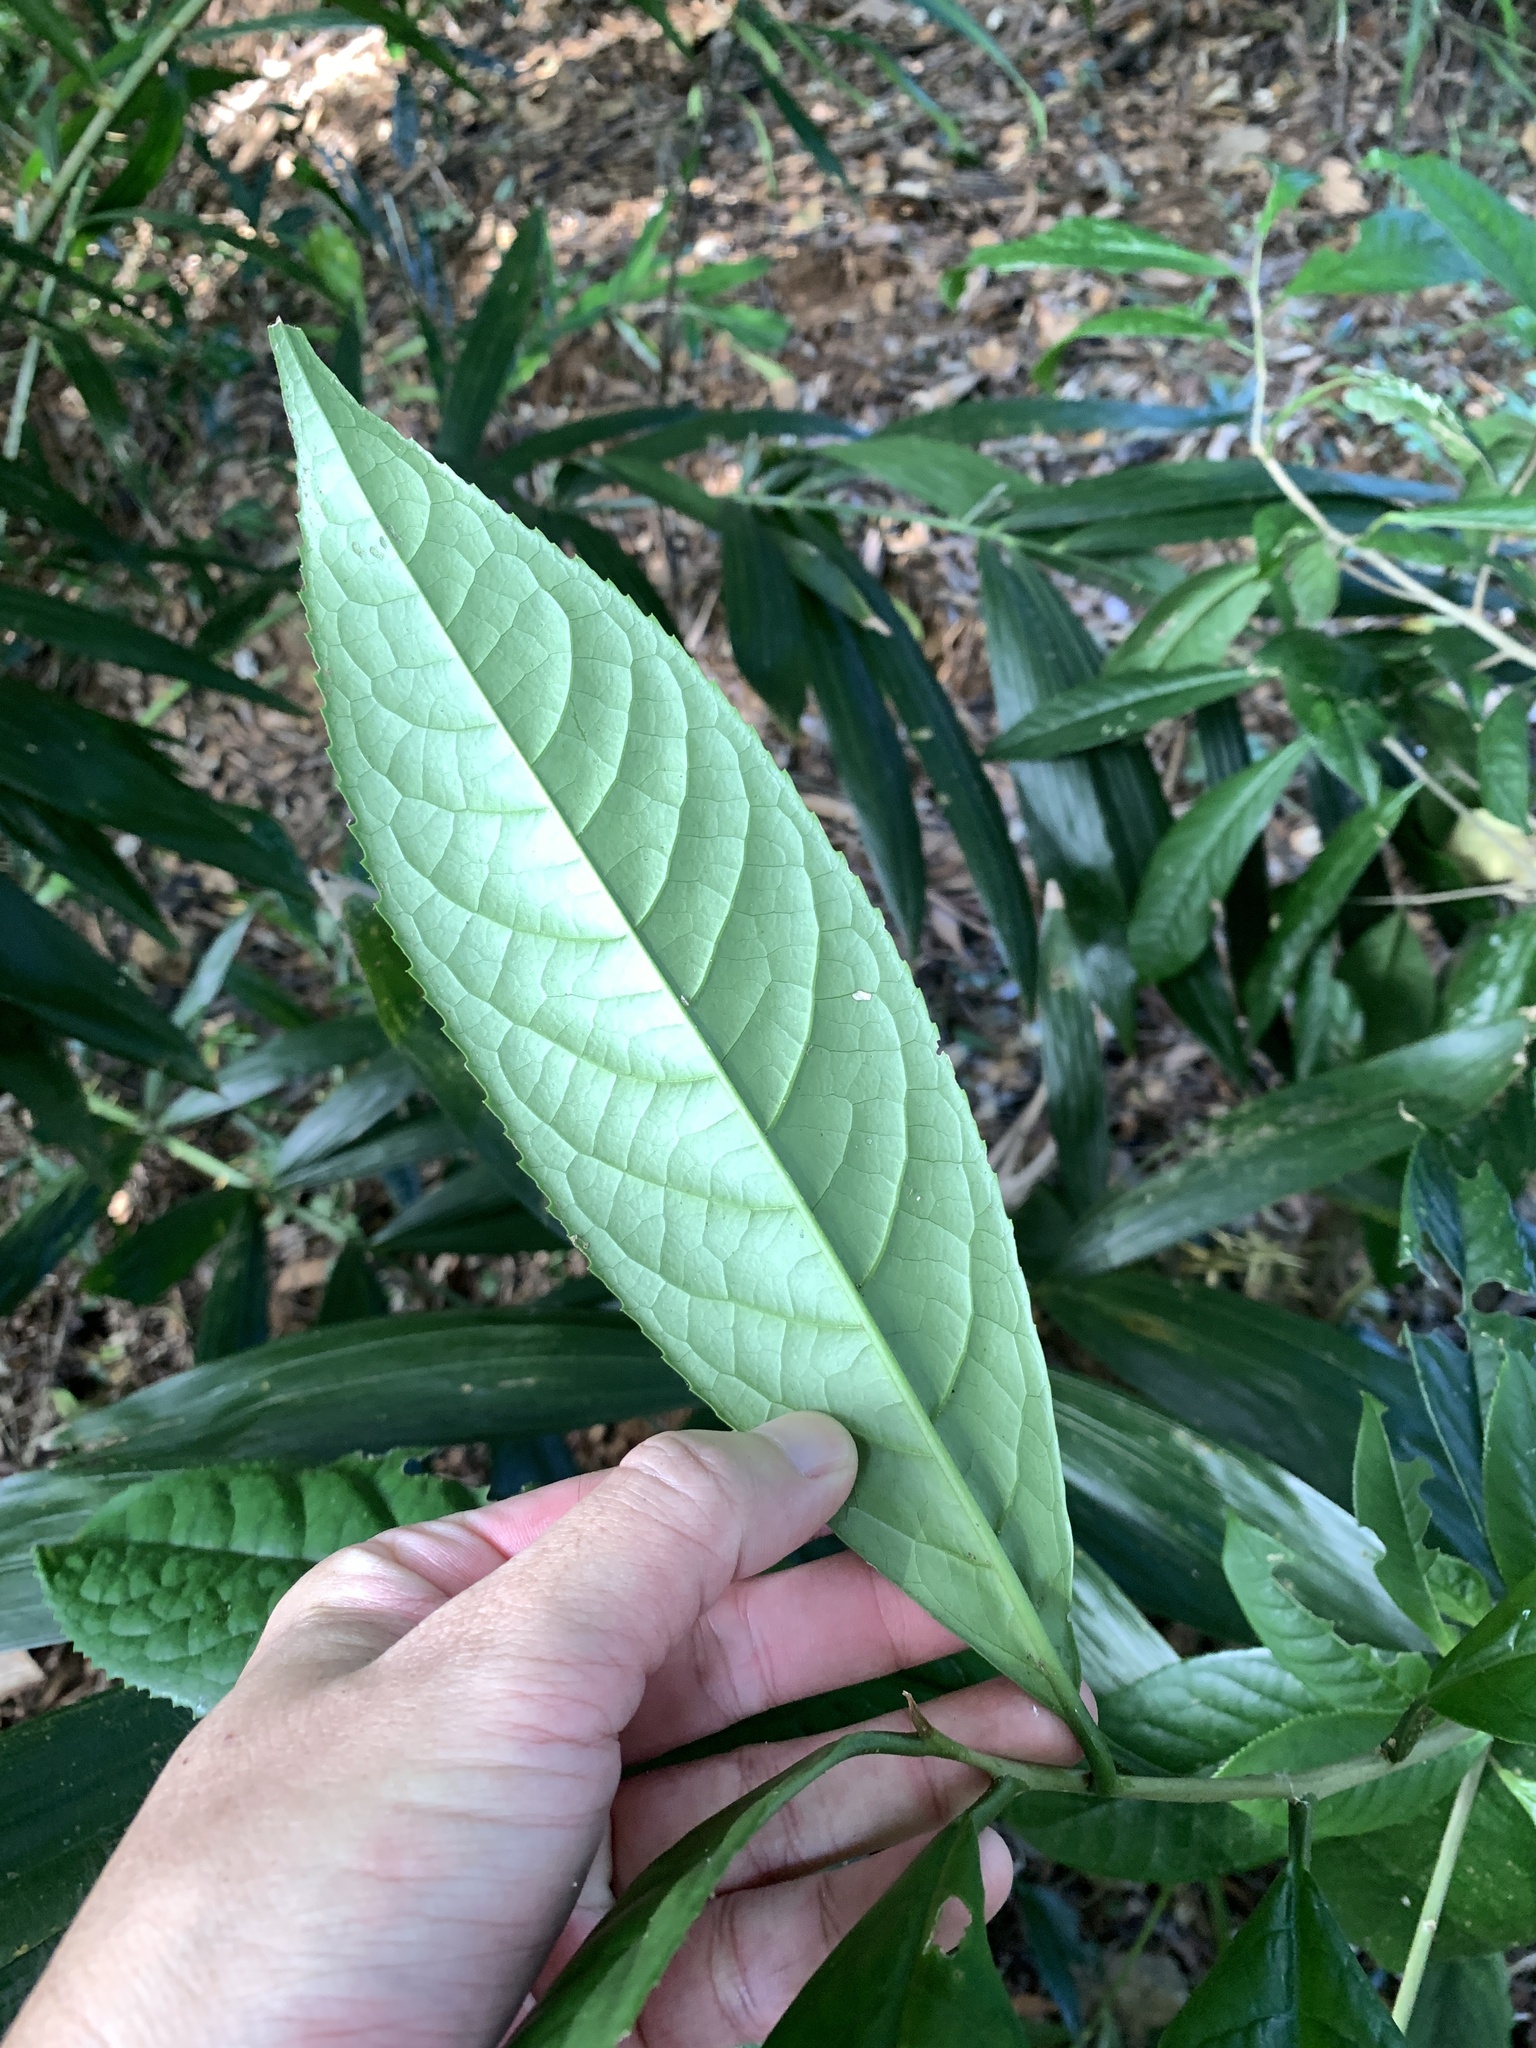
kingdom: Plantae
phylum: Tracheophyta
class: Magnoliopsida
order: Ericales
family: Symplocaceae
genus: Symplocos
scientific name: Symplocos glauca
